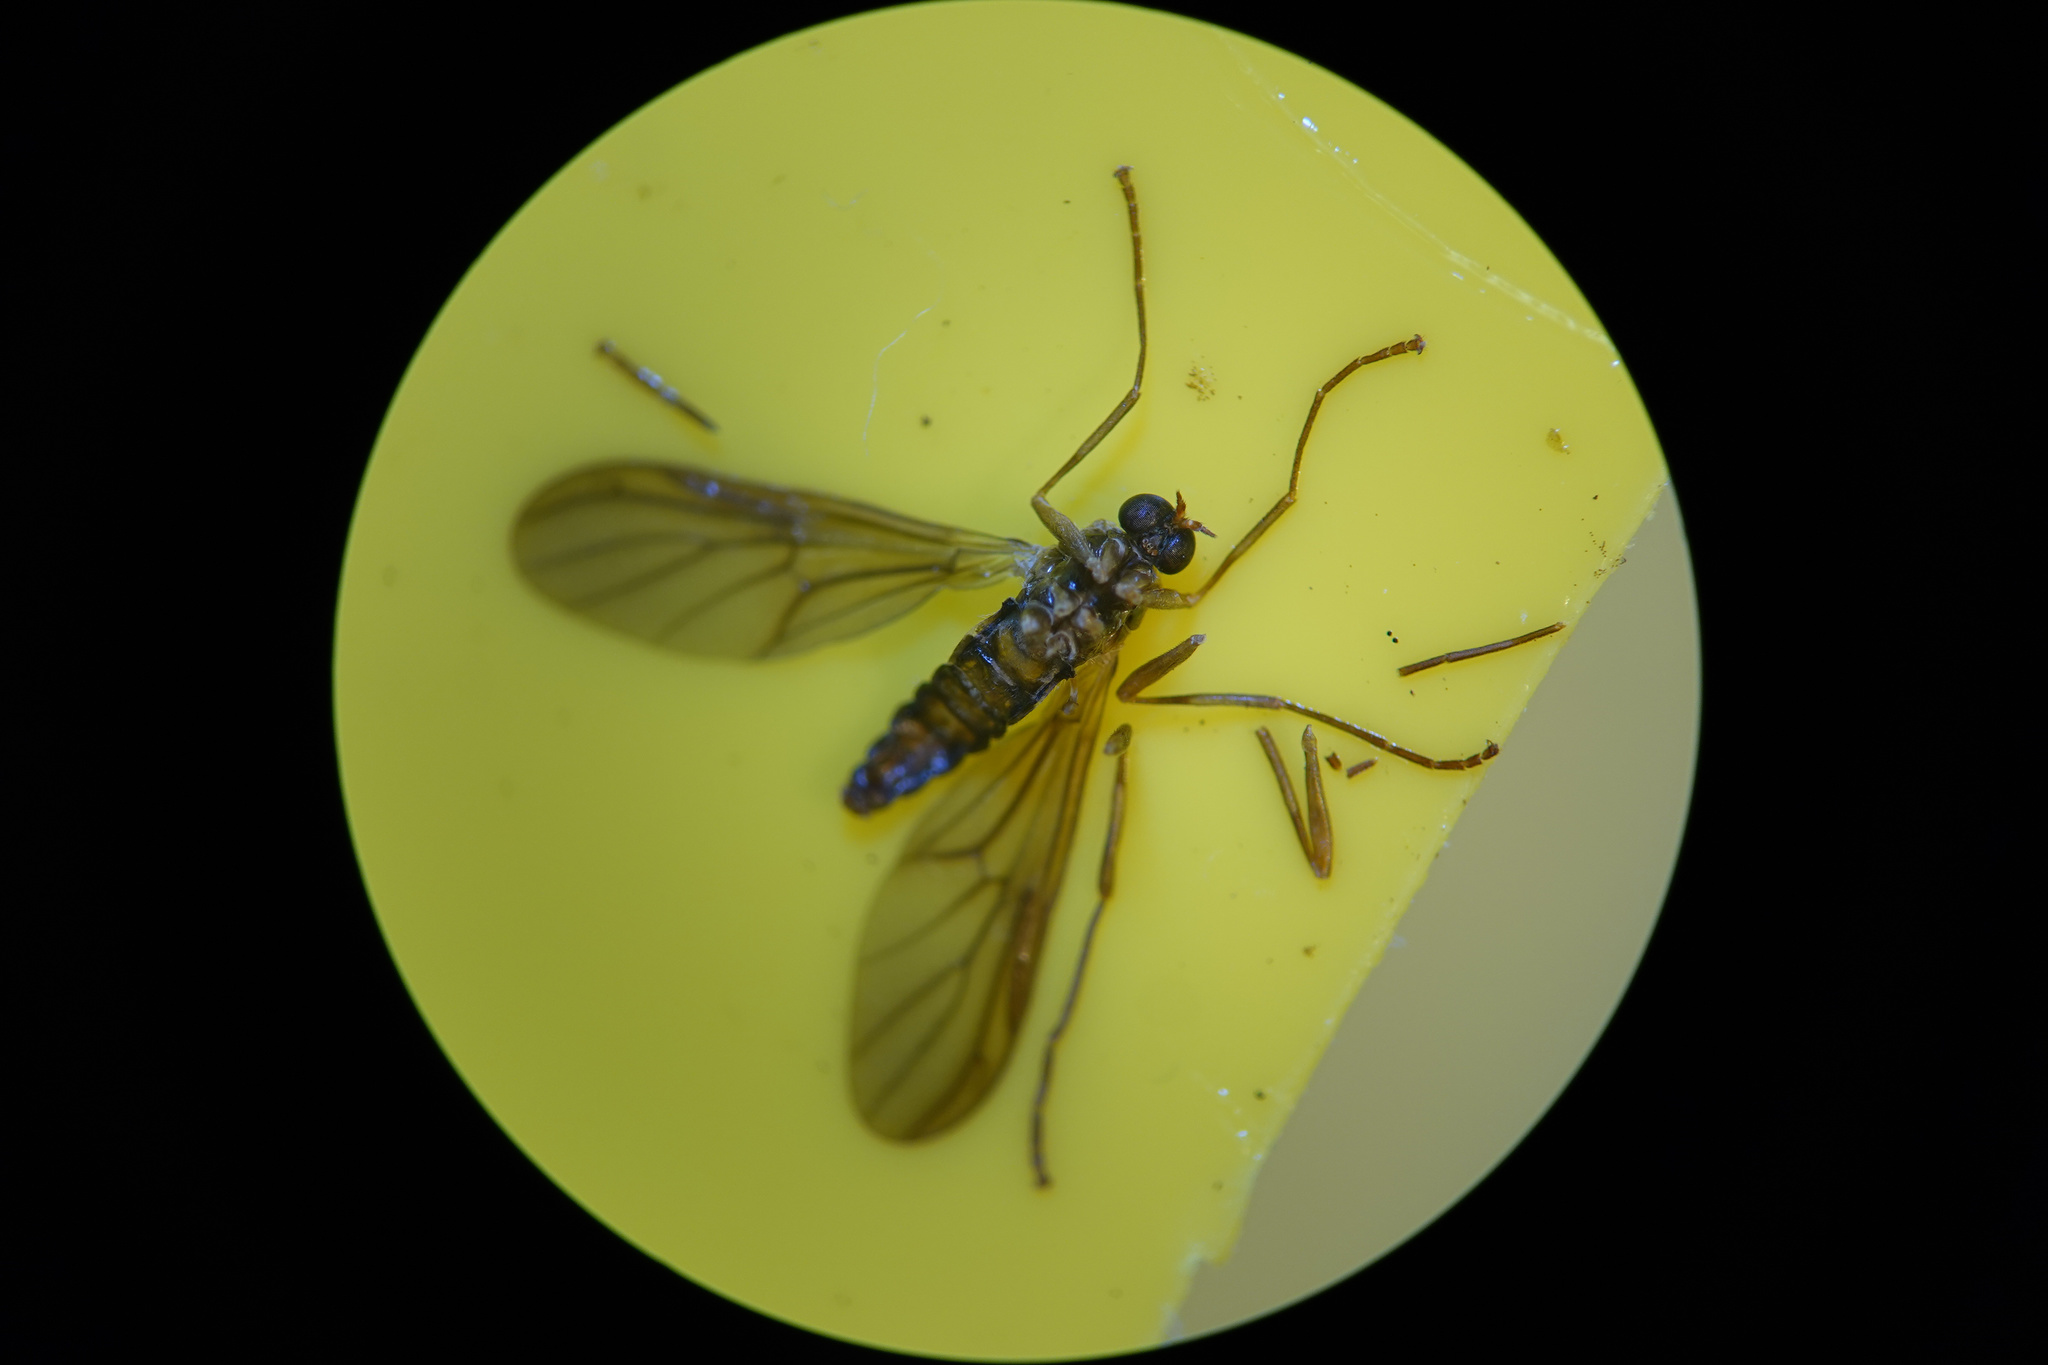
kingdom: Animalia
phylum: Arthropoda
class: Insecta
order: Diptera
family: Stratiomyidae
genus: Boreoides
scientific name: Boreoides tasmaniensis
